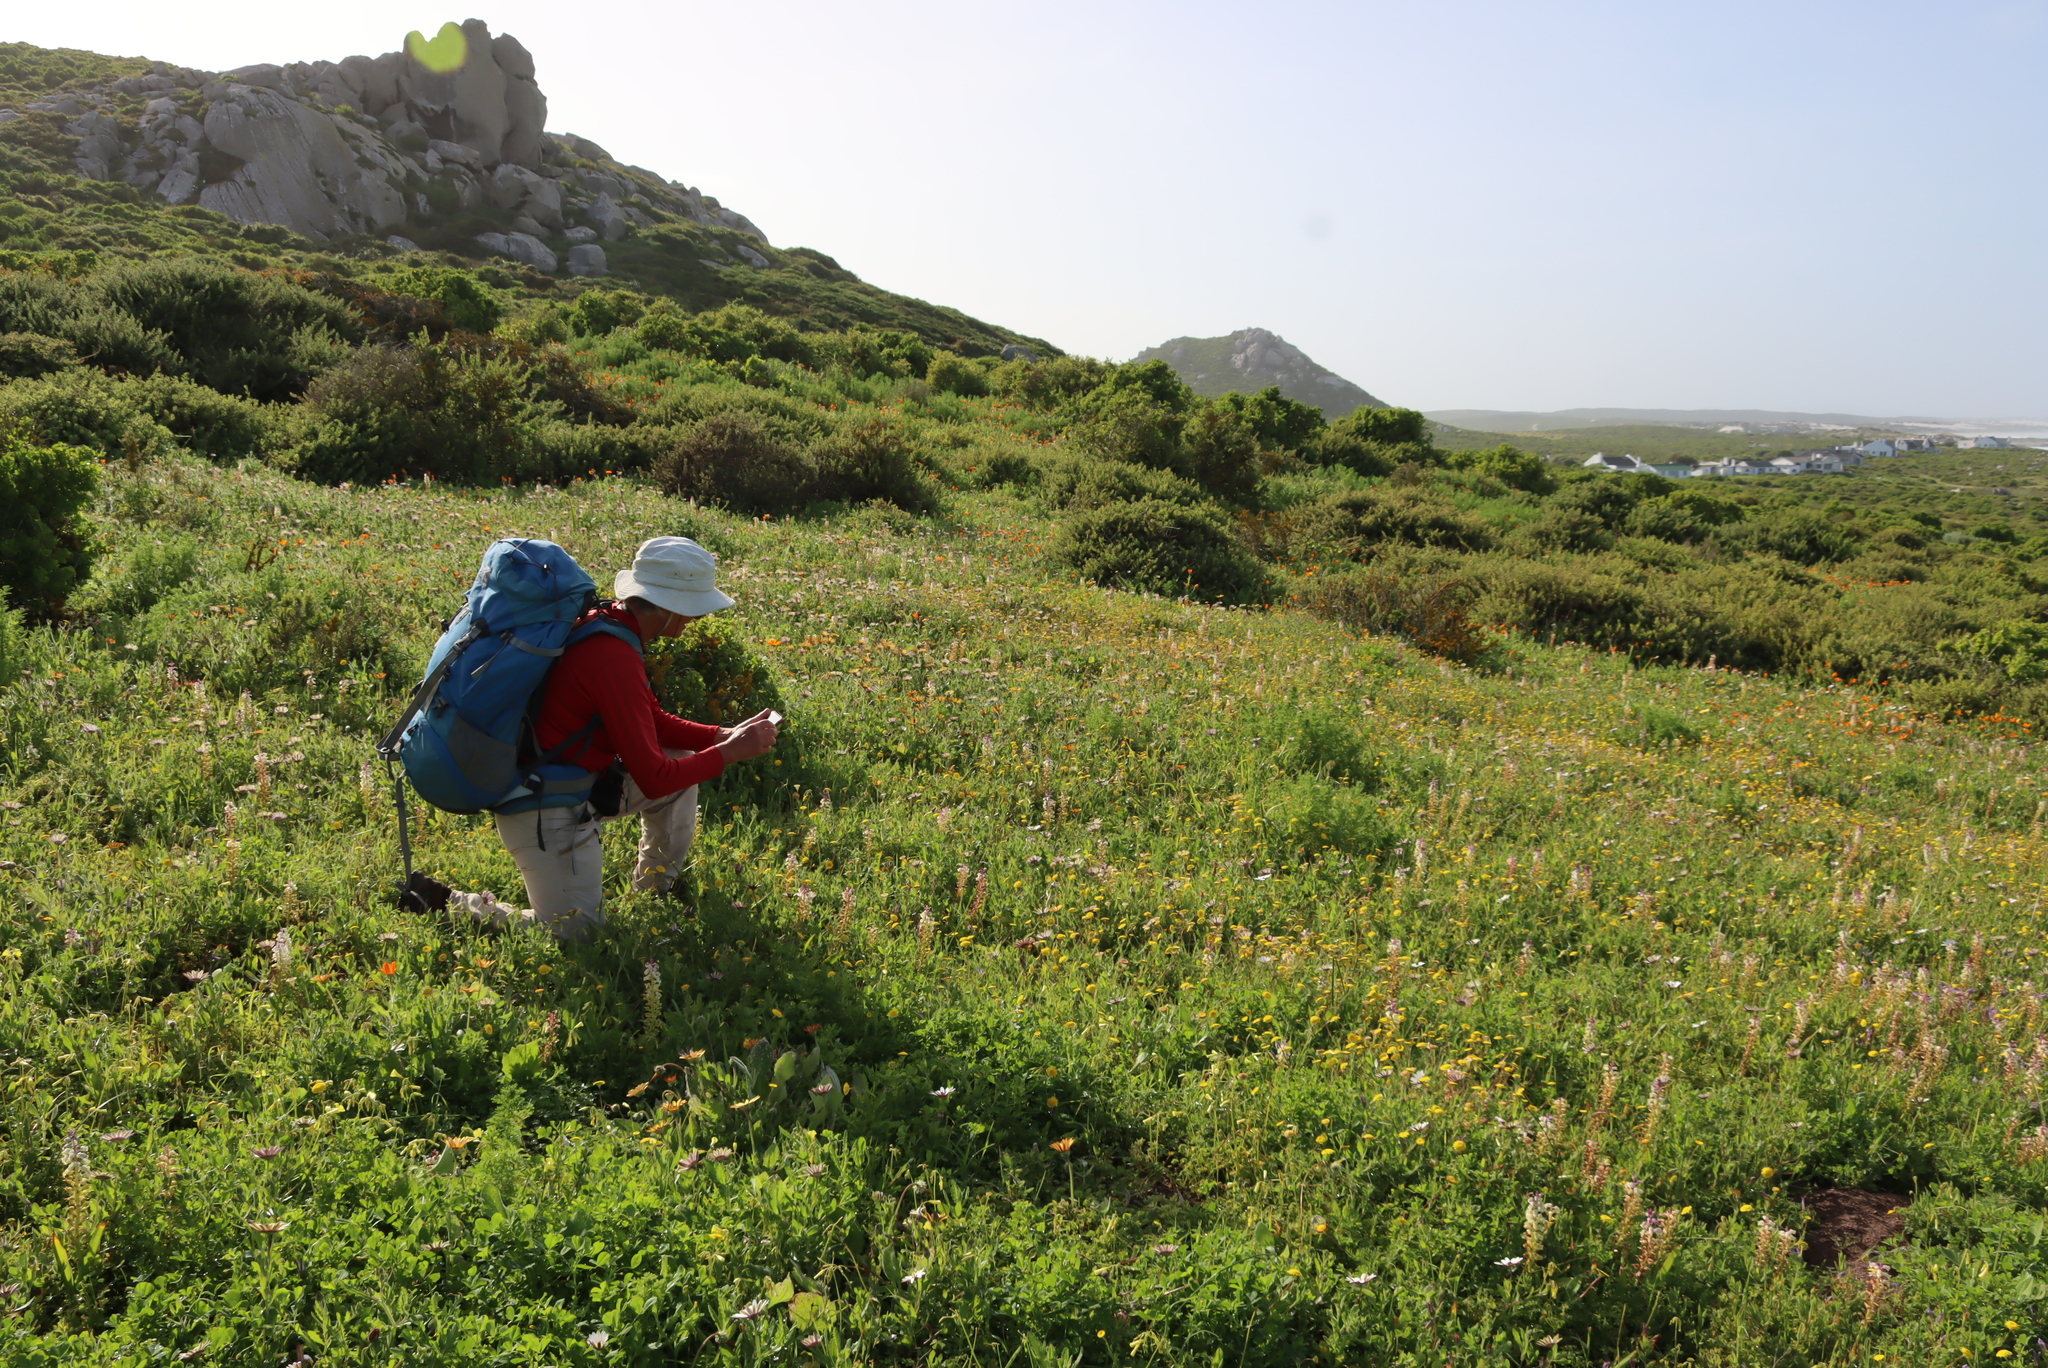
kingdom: Plantae
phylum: Tracheophyta
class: Liliopsida
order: Asparagales
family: Asparagaceae
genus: Lachenalia
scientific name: Lachenalia pallida
